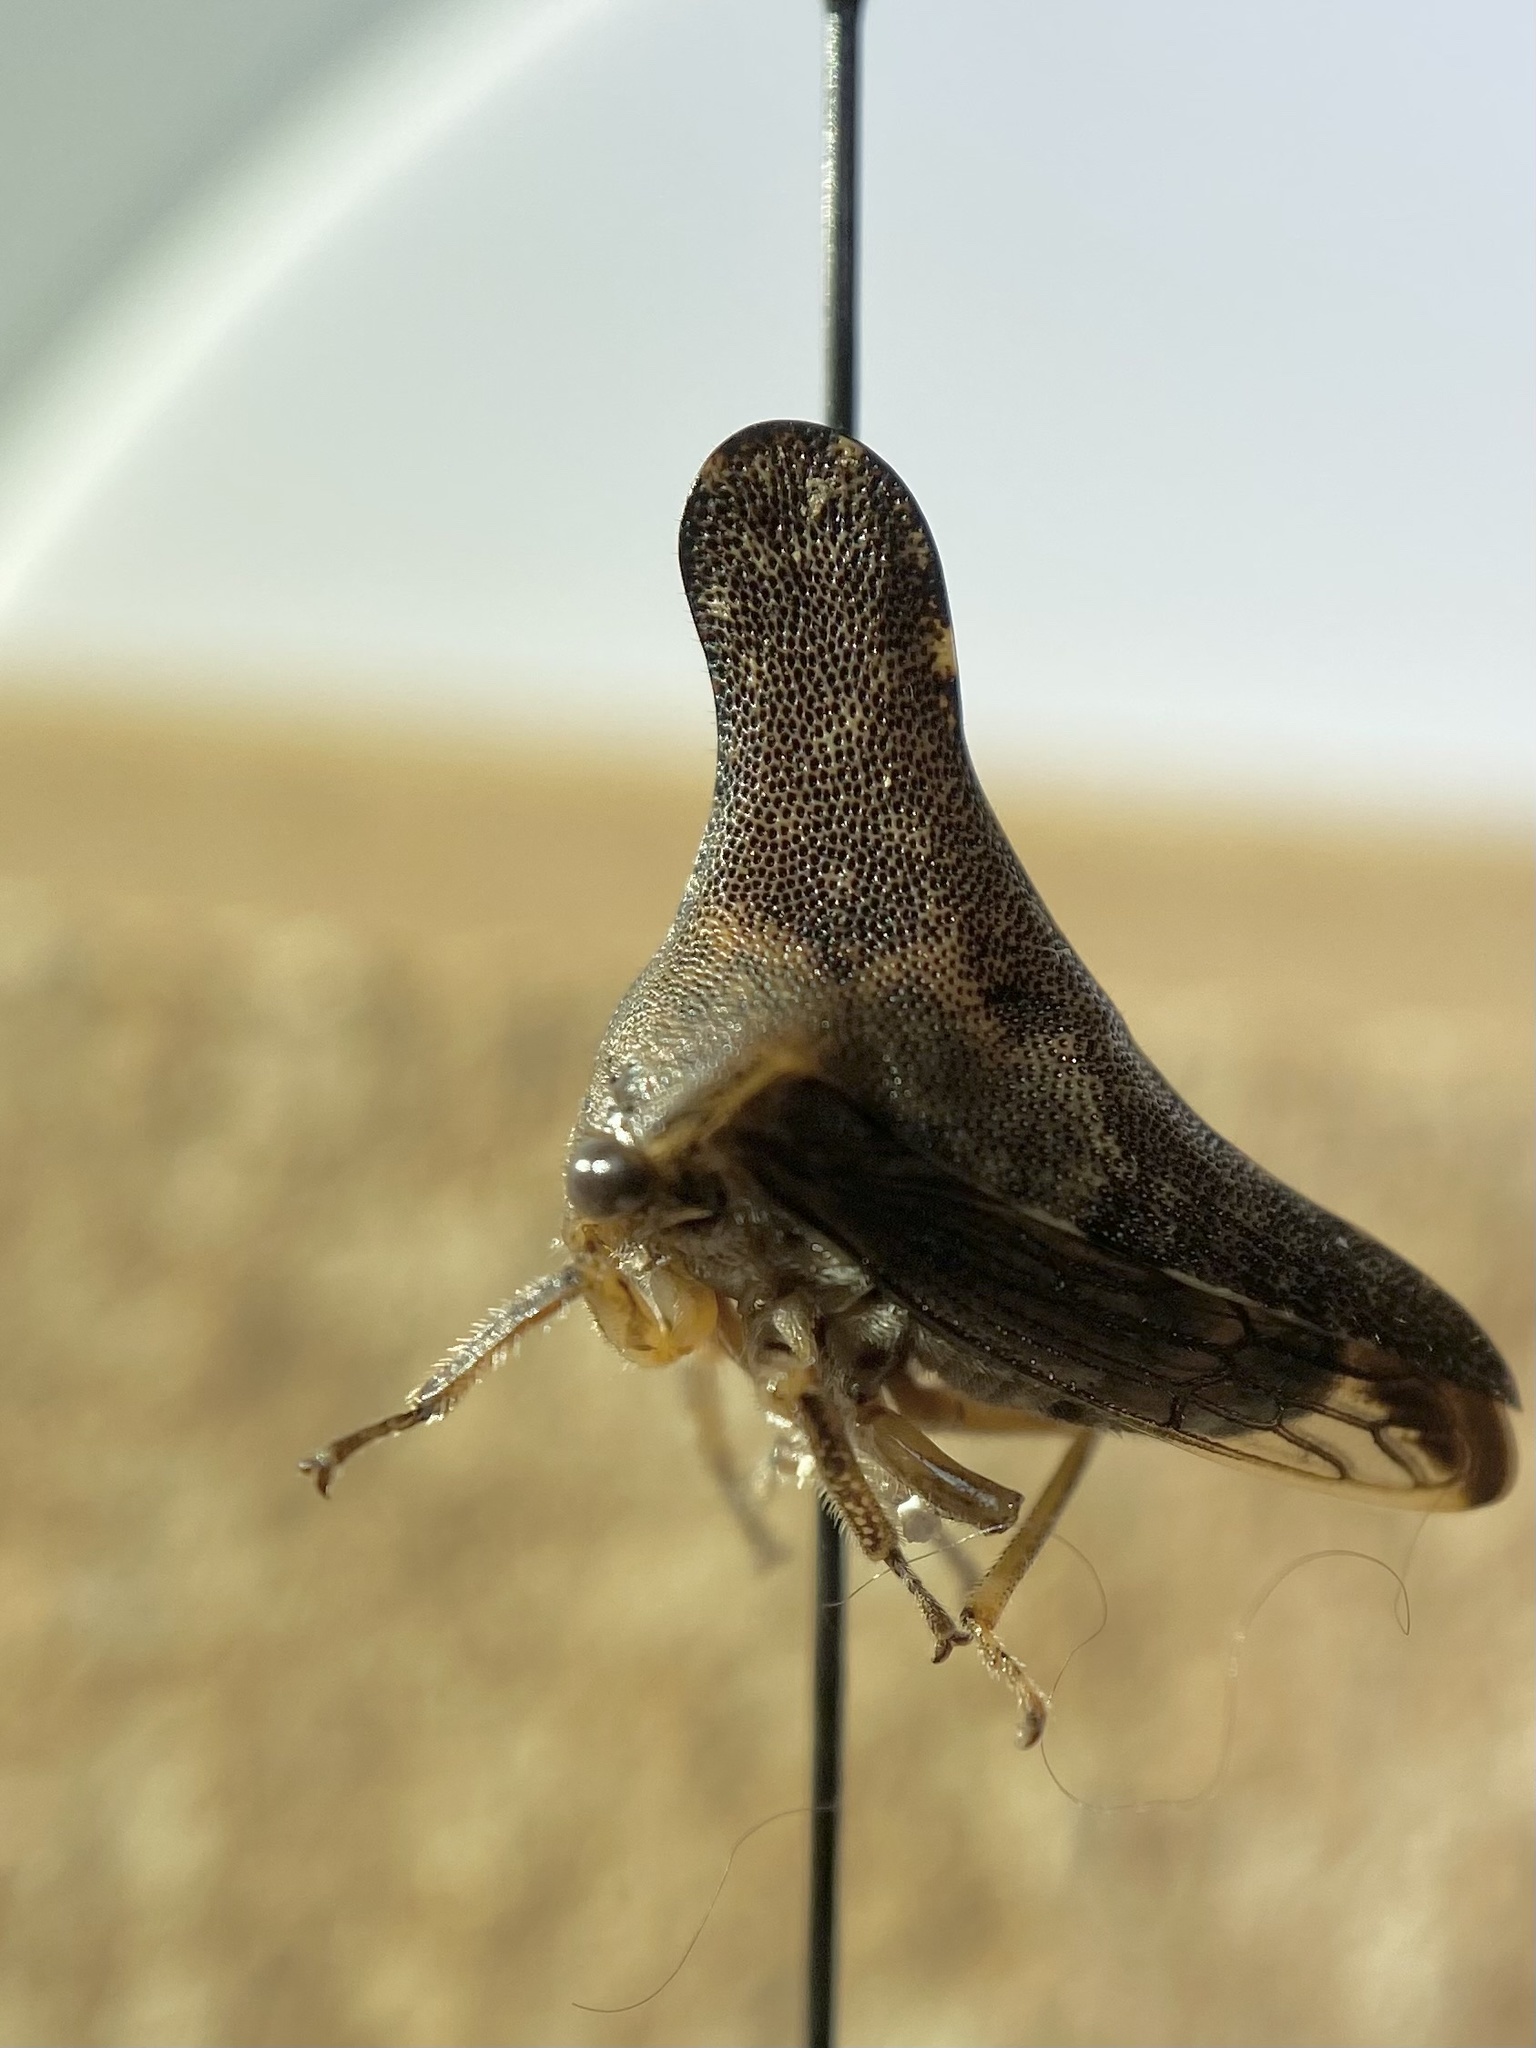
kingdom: Animalia
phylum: Arthropoda
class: Insecta
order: Hemiptera
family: Membracidae
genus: Glossonotus
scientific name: Glossonotus acuminata
